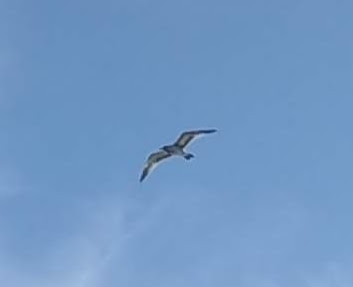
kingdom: Animalia
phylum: Chordata
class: Aves
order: Charadriiformes
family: Laridae
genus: Larus
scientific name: Larus delawarensis
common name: Ring-billed gull
